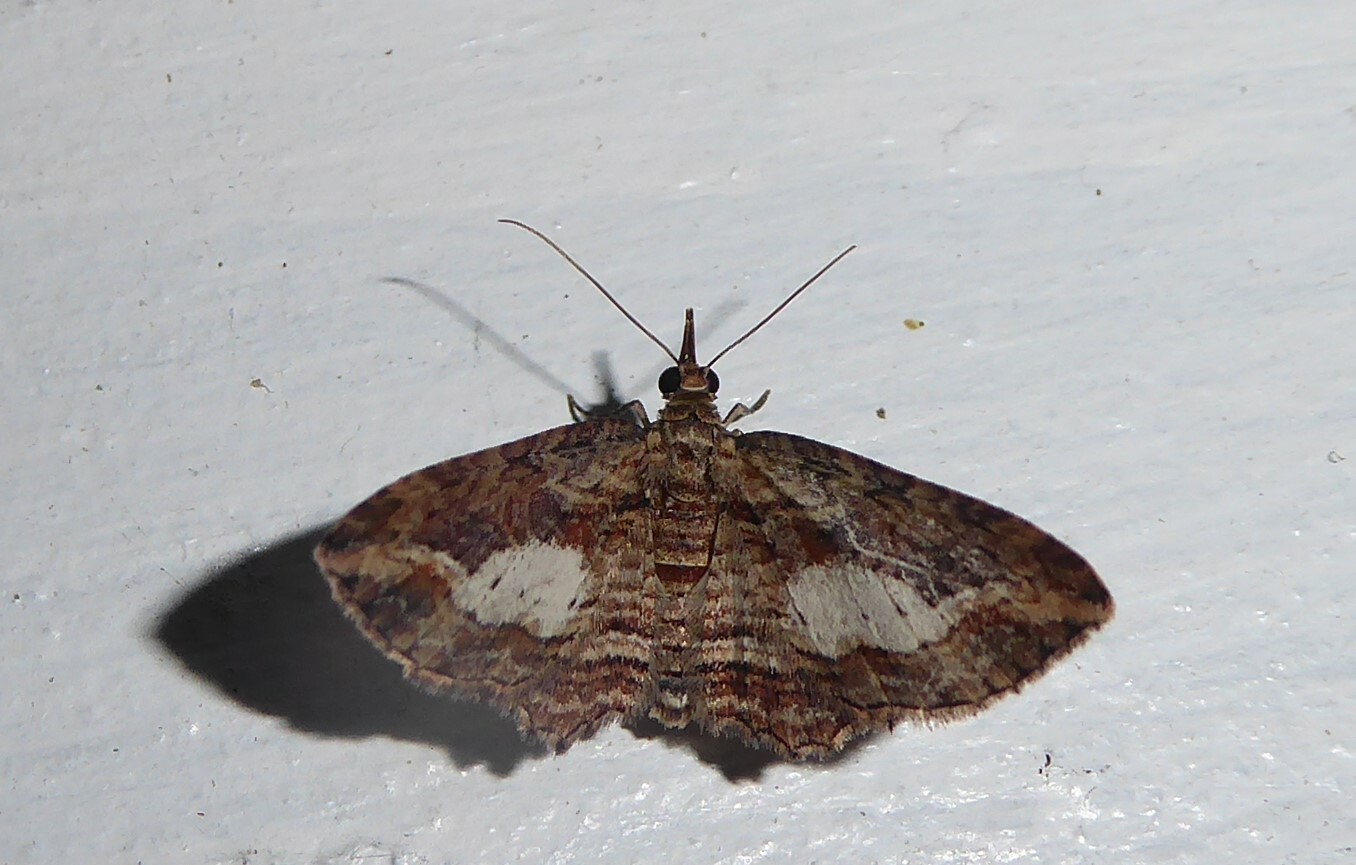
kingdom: Animalia
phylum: Arthropoda
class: Insecta
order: Lepidoptera
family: Geometridae
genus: Chloroclystis
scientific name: Chloroclystis filata
